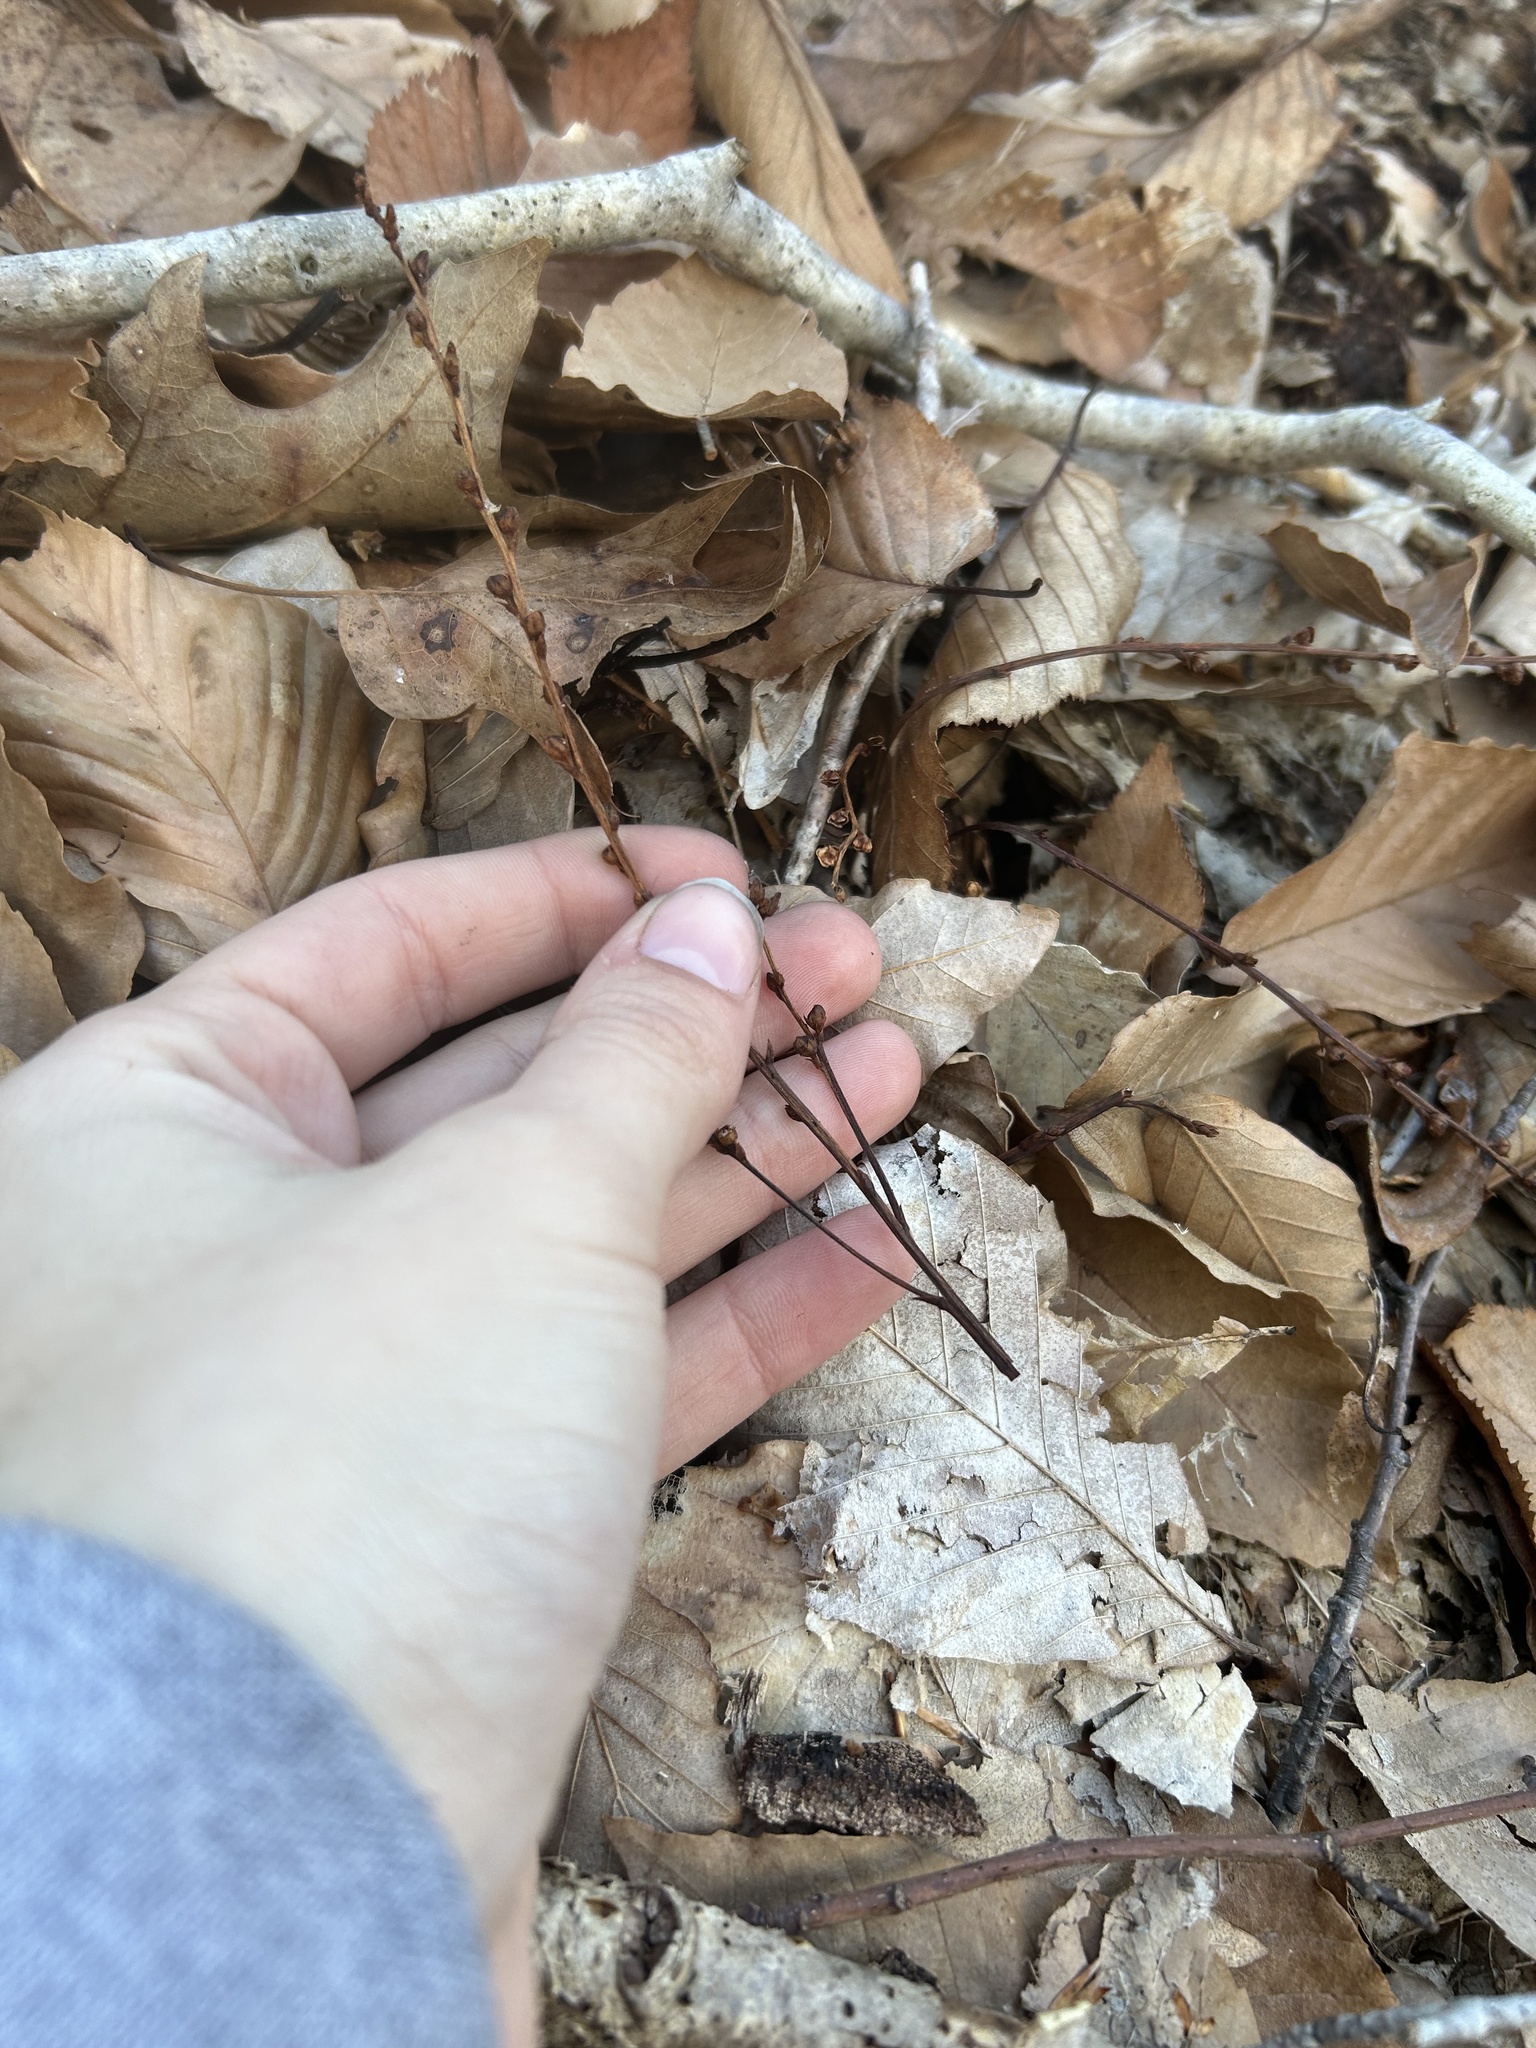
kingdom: Plantae
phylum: Tracheophyta
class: Magnoliopsida
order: Lamiales
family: Orobanchaceae
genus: Epifagus
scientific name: Epifagus virginiana
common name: Beechdrops
